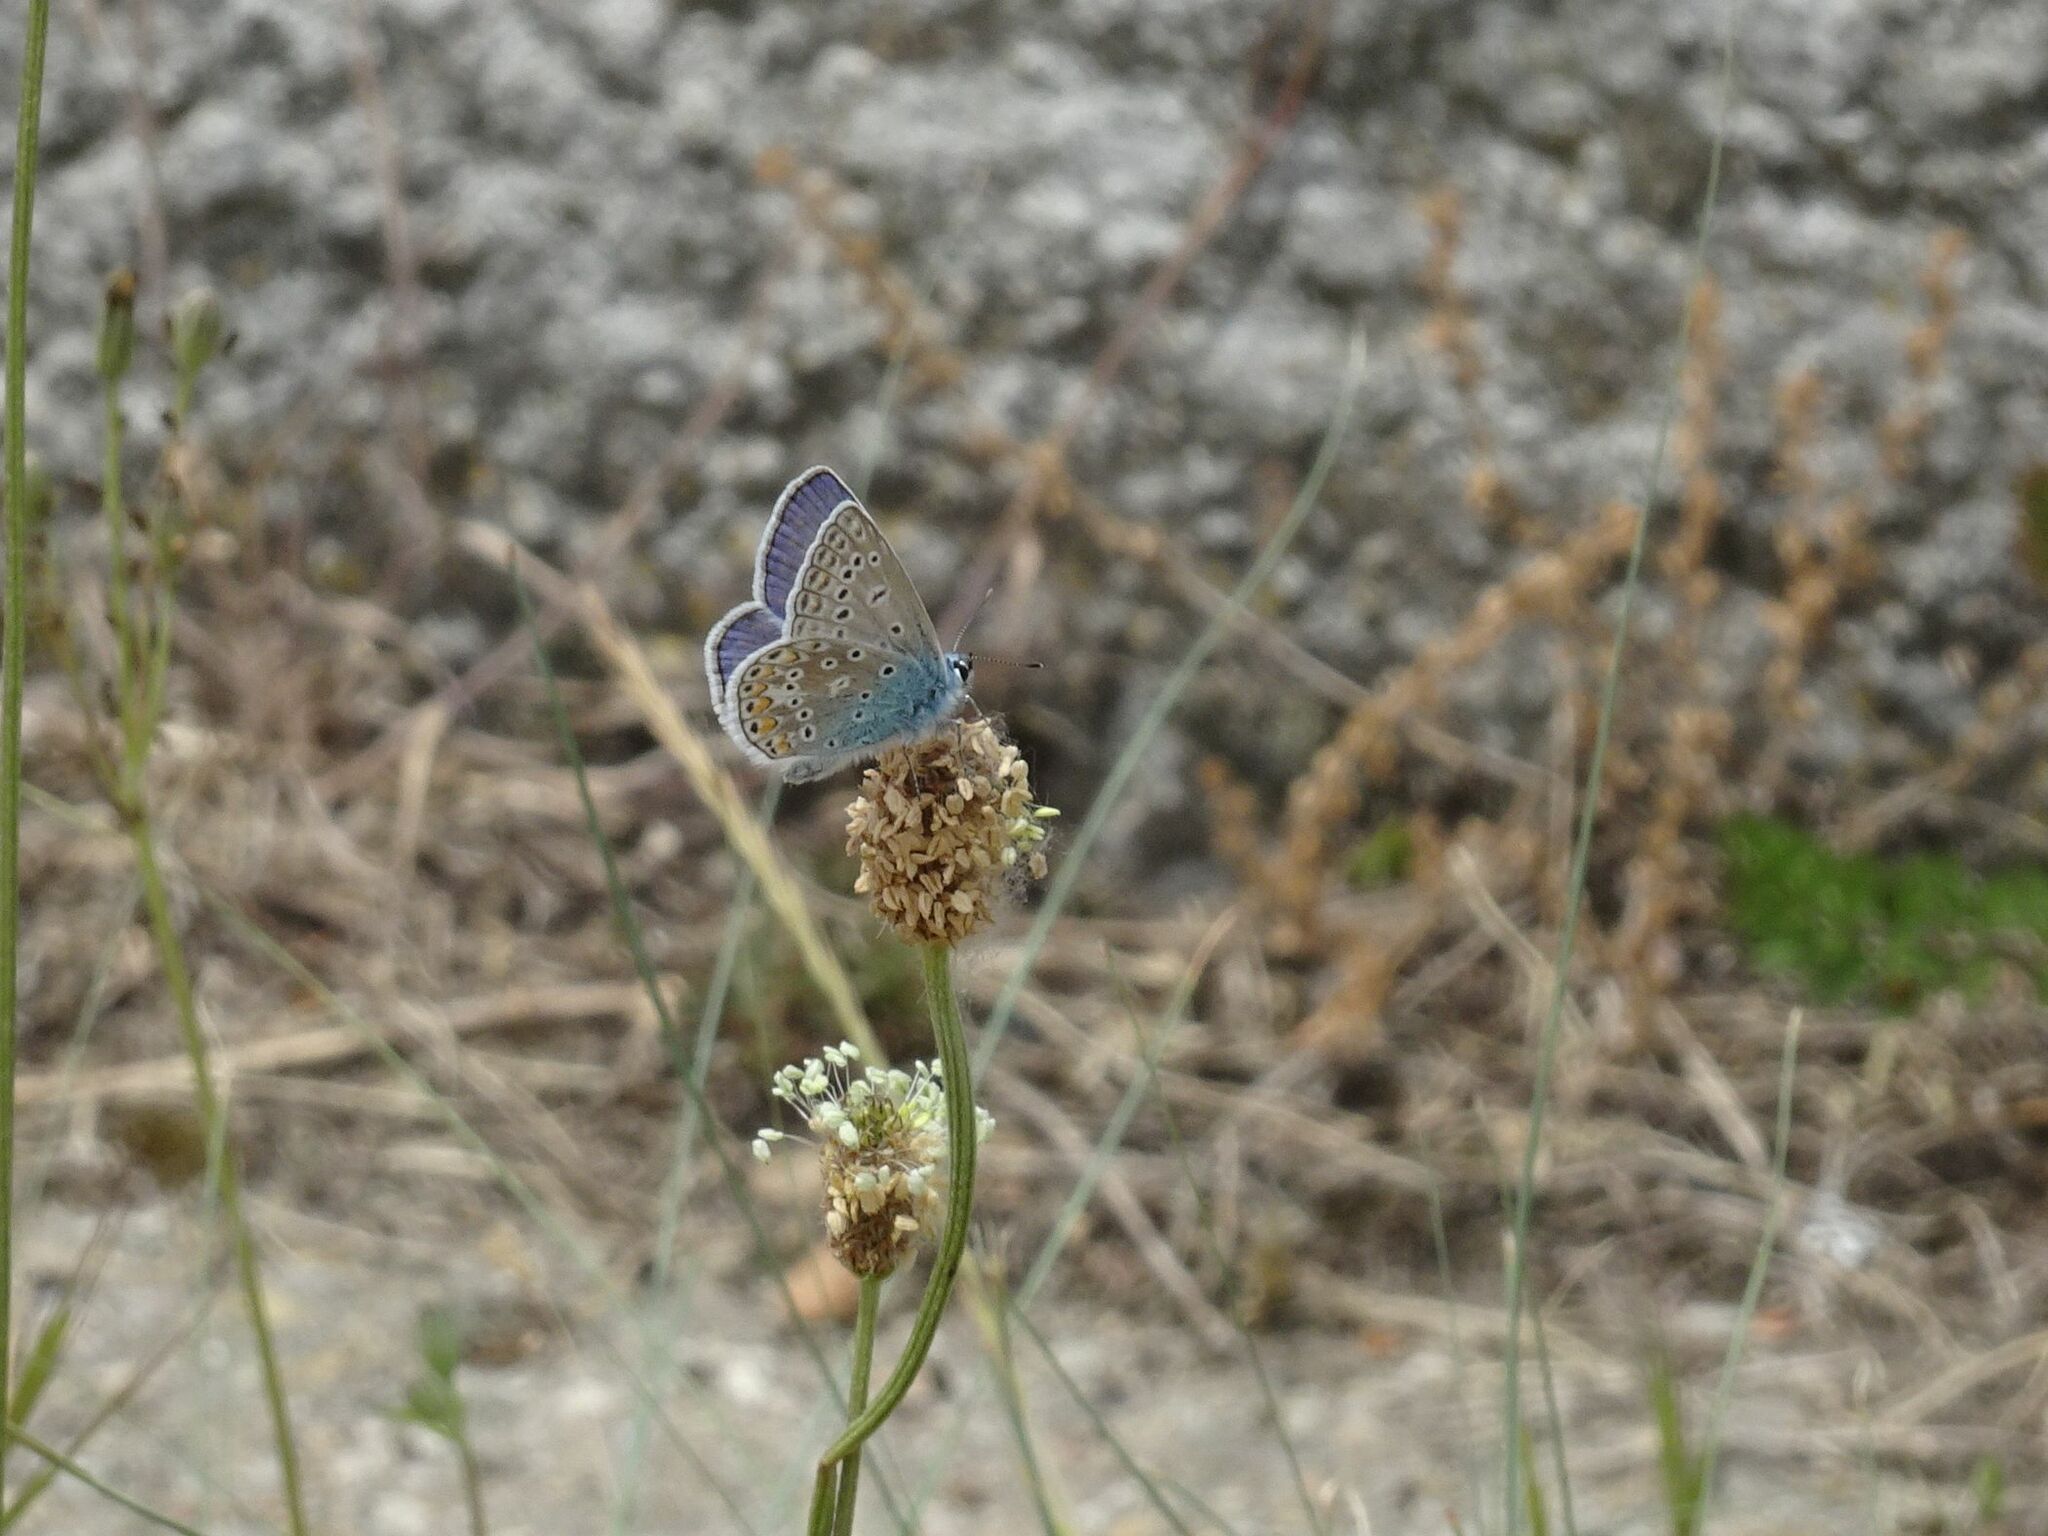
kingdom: Animalia
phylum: Arthropoda
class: Insecta
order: Lepidoptera
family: Lycaenidae
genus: Polyommatus
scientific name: Polyommatus icarus
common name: Common blue
